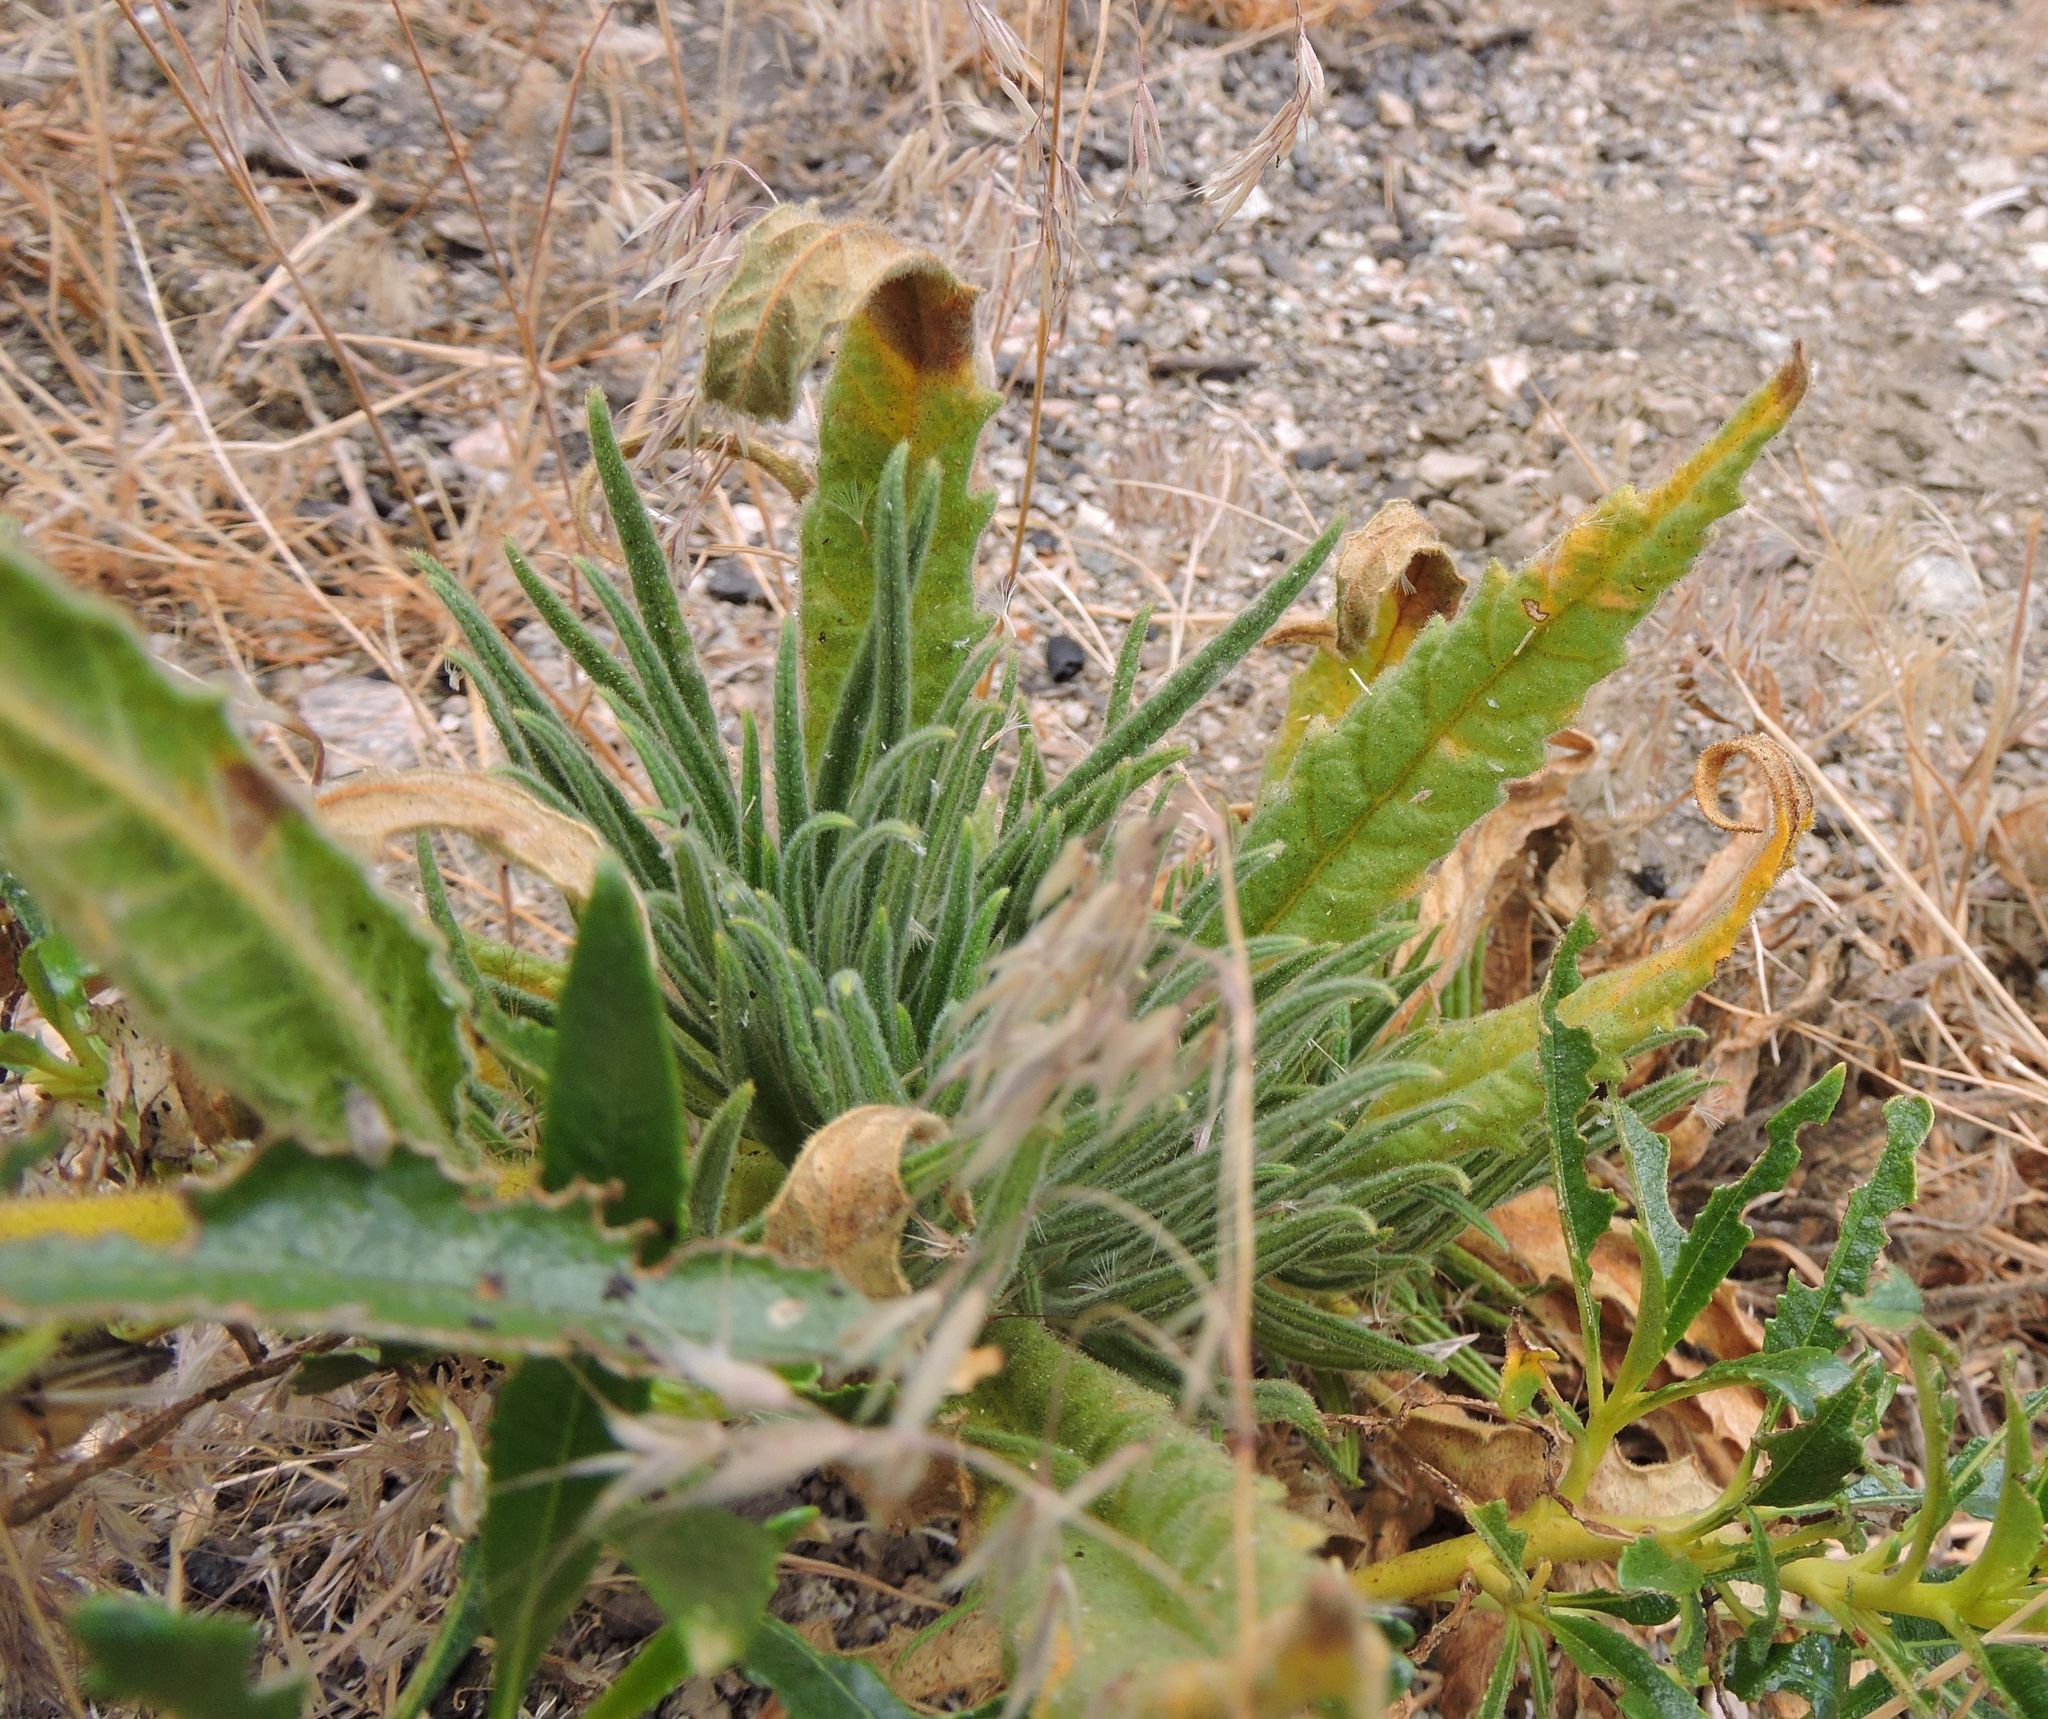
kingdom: Plantae
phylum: Tracheophyta
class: Magnoliopsida
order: Boraginales
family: Namaceae
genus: Turricula
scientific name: Turricula parryi
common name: Poodle-dog-bush
